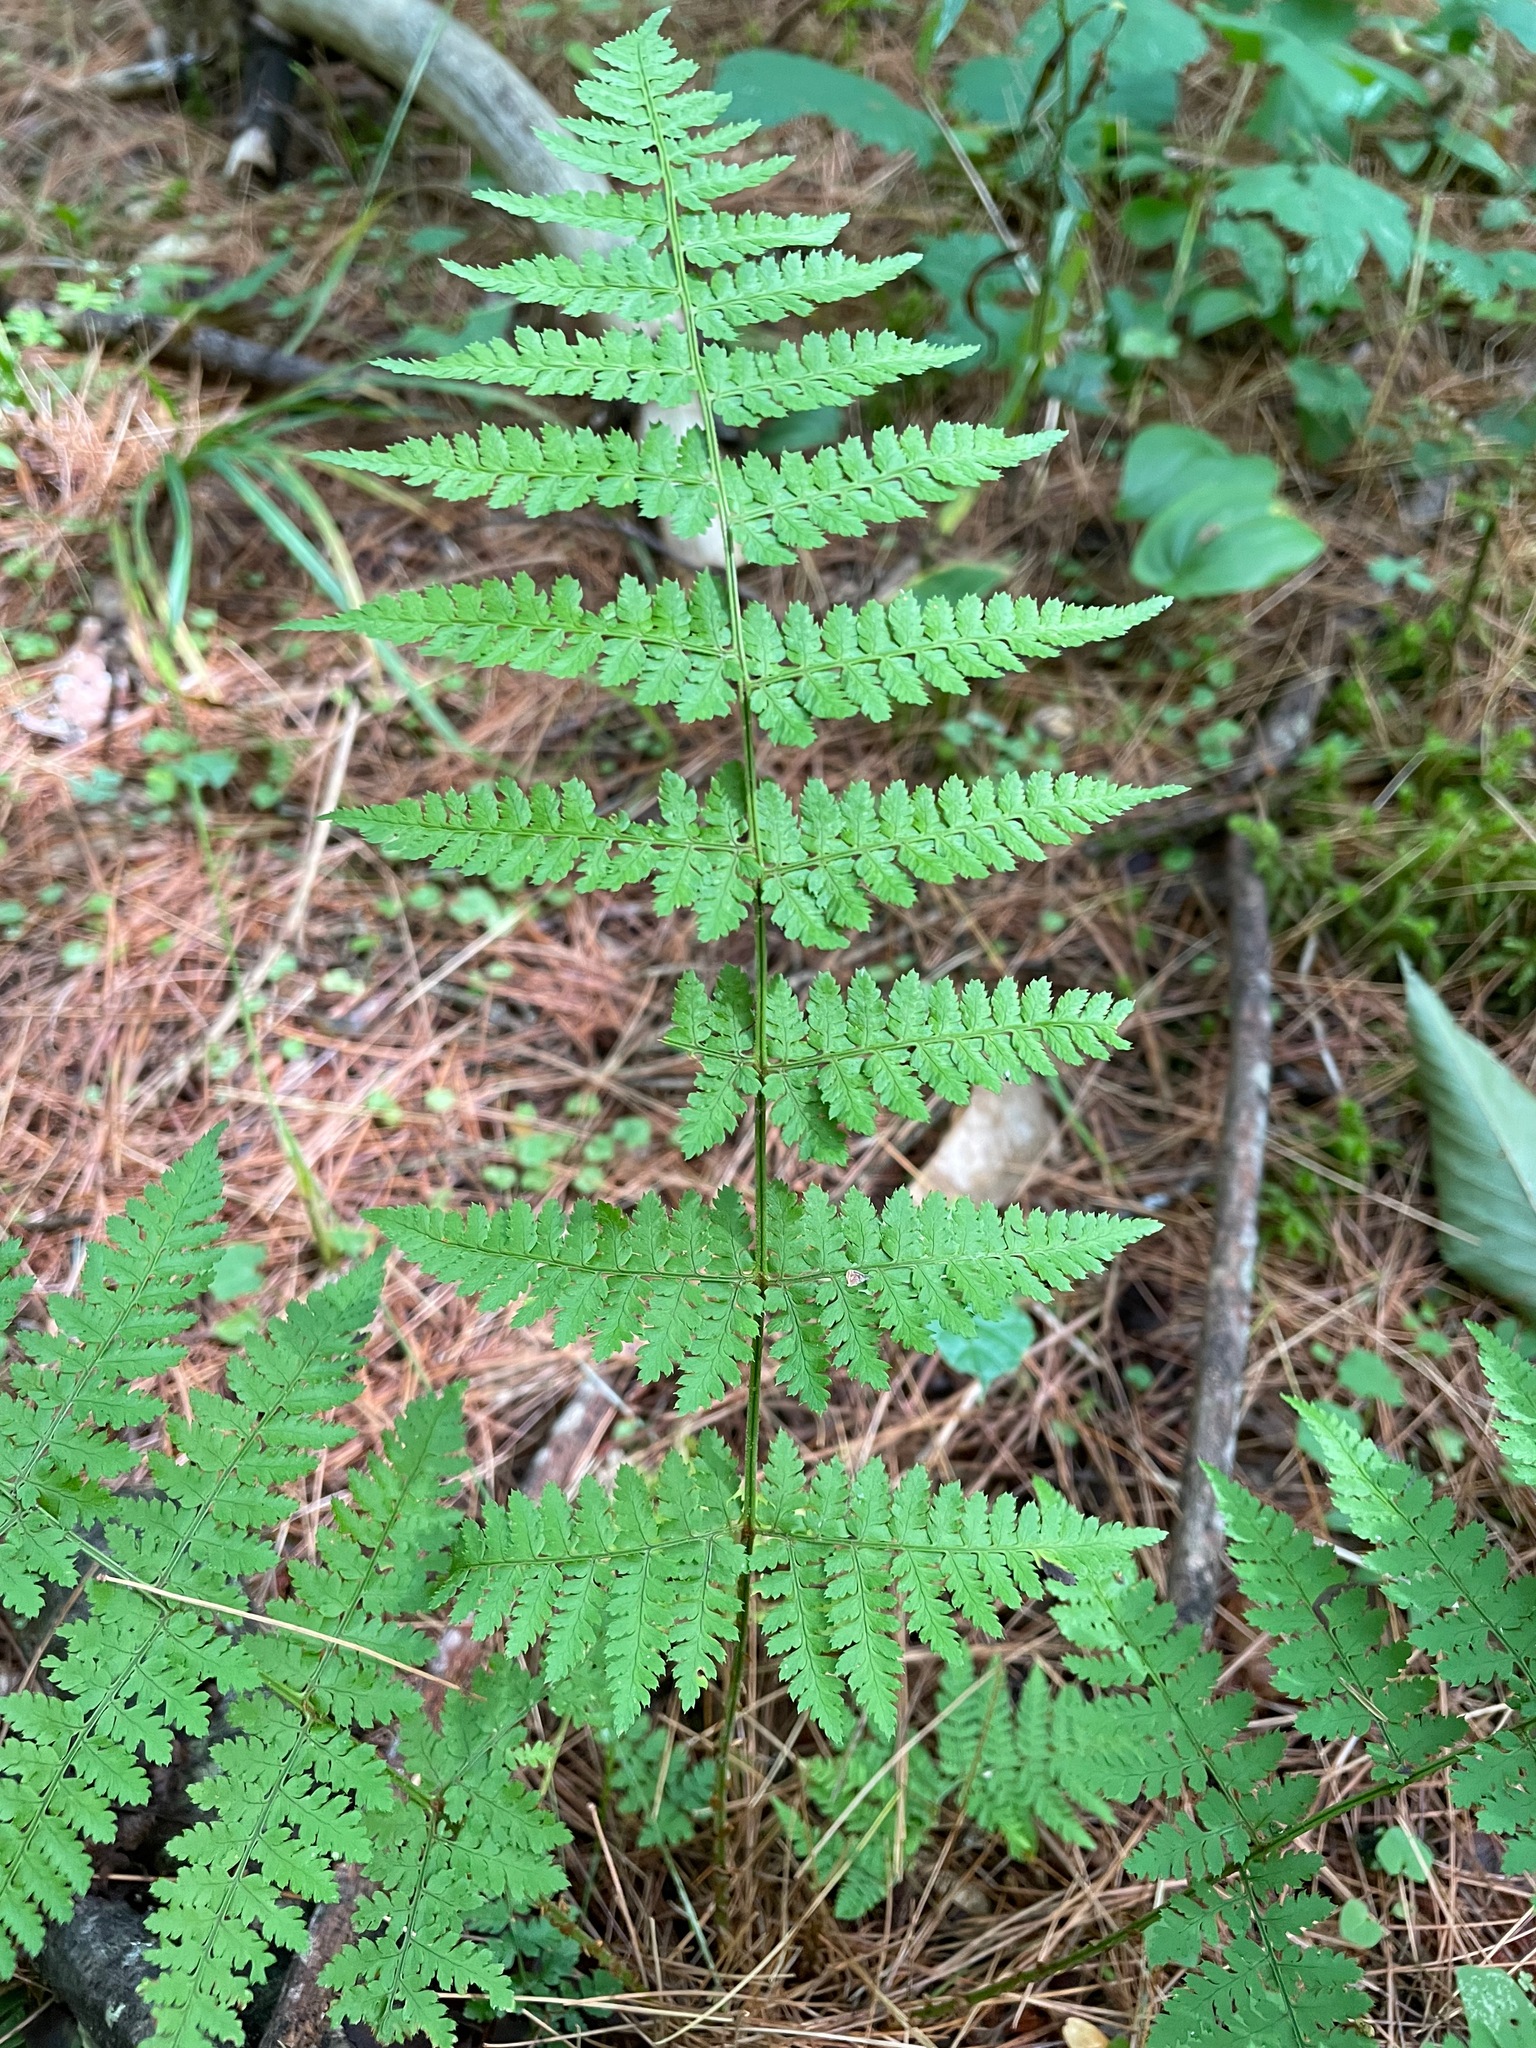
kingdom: Plantae
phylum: Tracheophyta
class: Polypodiopsida
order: Polypodiales
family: Dryopteridaceae
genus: Dryopteris
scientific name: Dryopteris intermedia
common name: Evergreen wood fern
